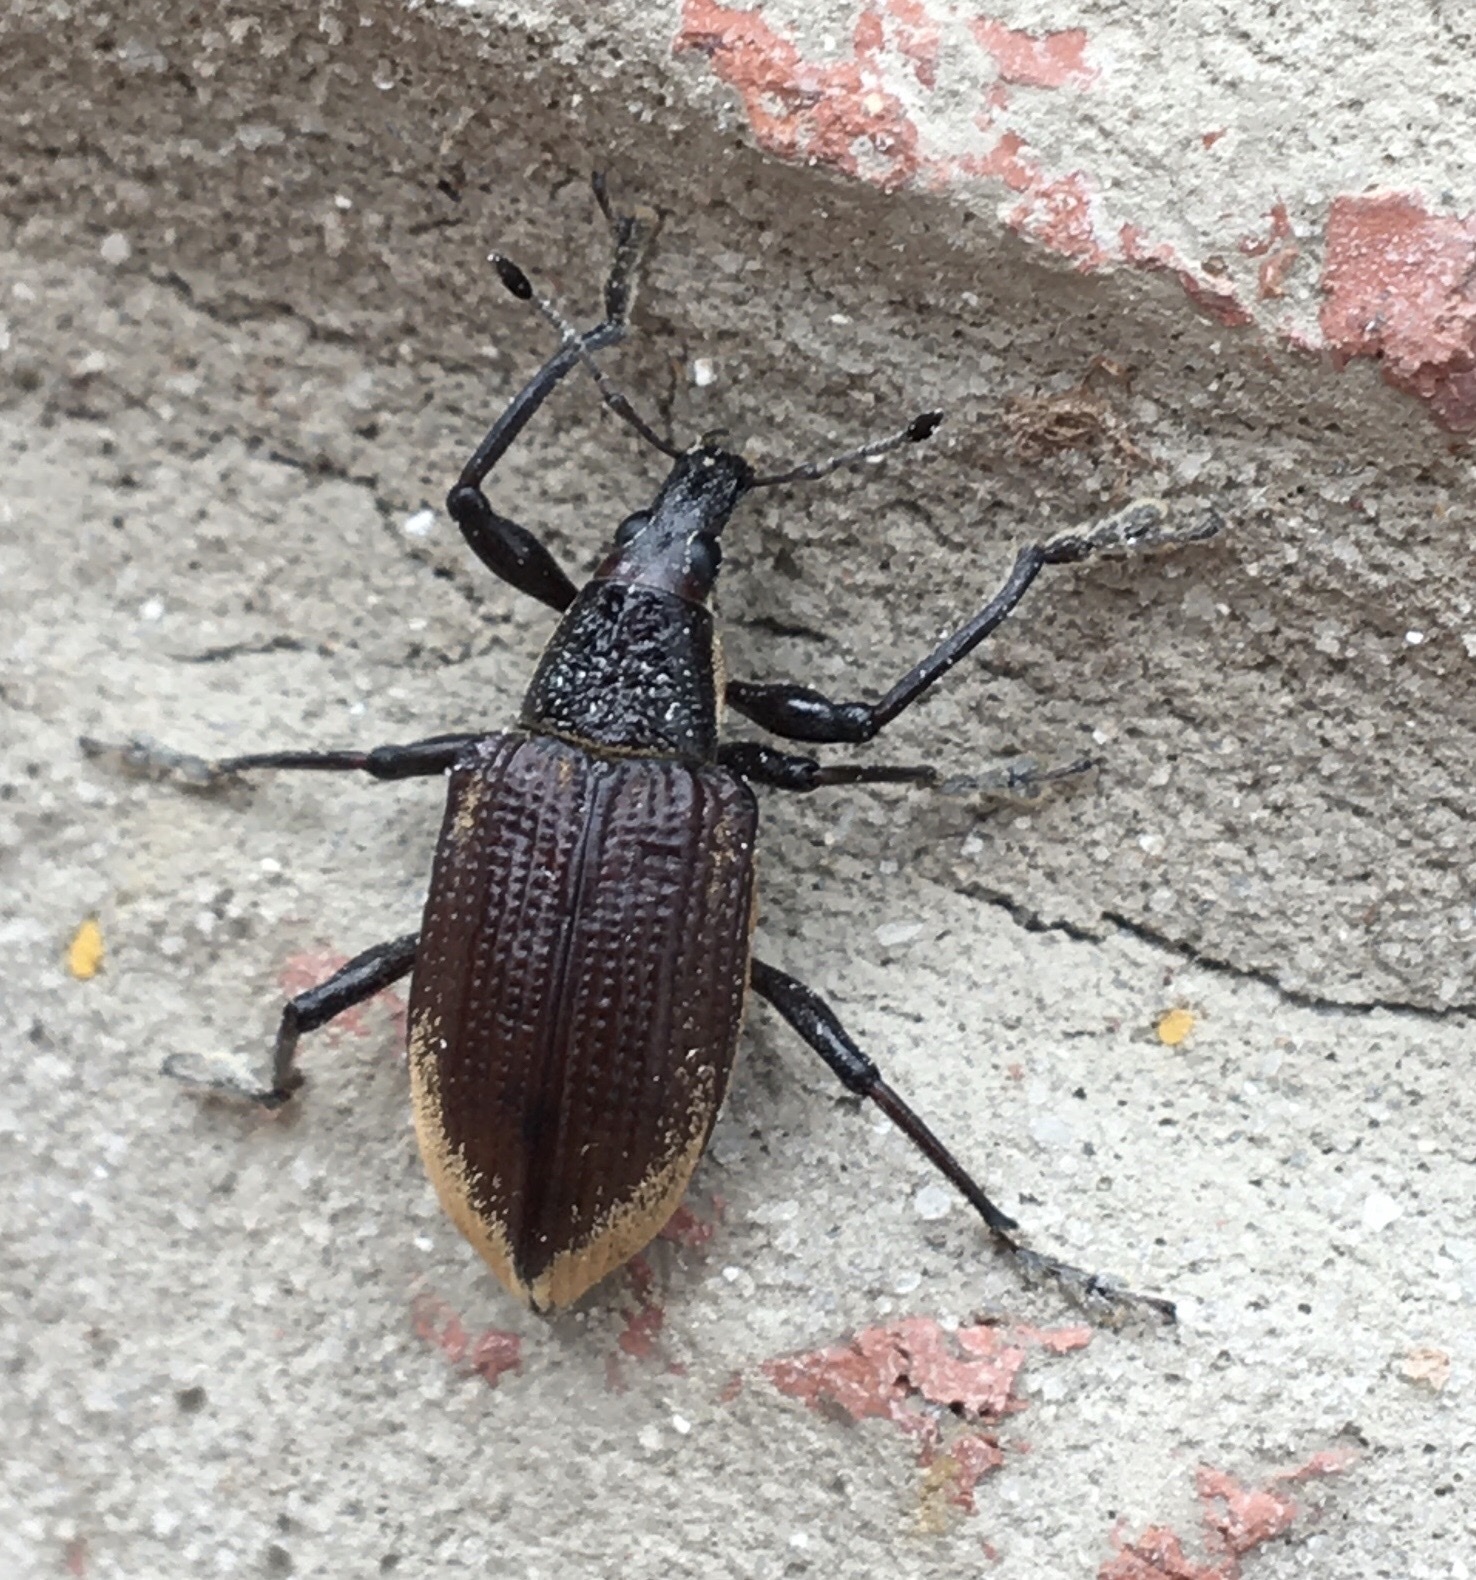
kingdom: Animalia
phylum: Arthropoda
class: Insecta
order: Coleoptera
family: Curculionidae
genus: Diaprepes
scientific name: Diaprepes abbreviatus
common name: Root weevil
